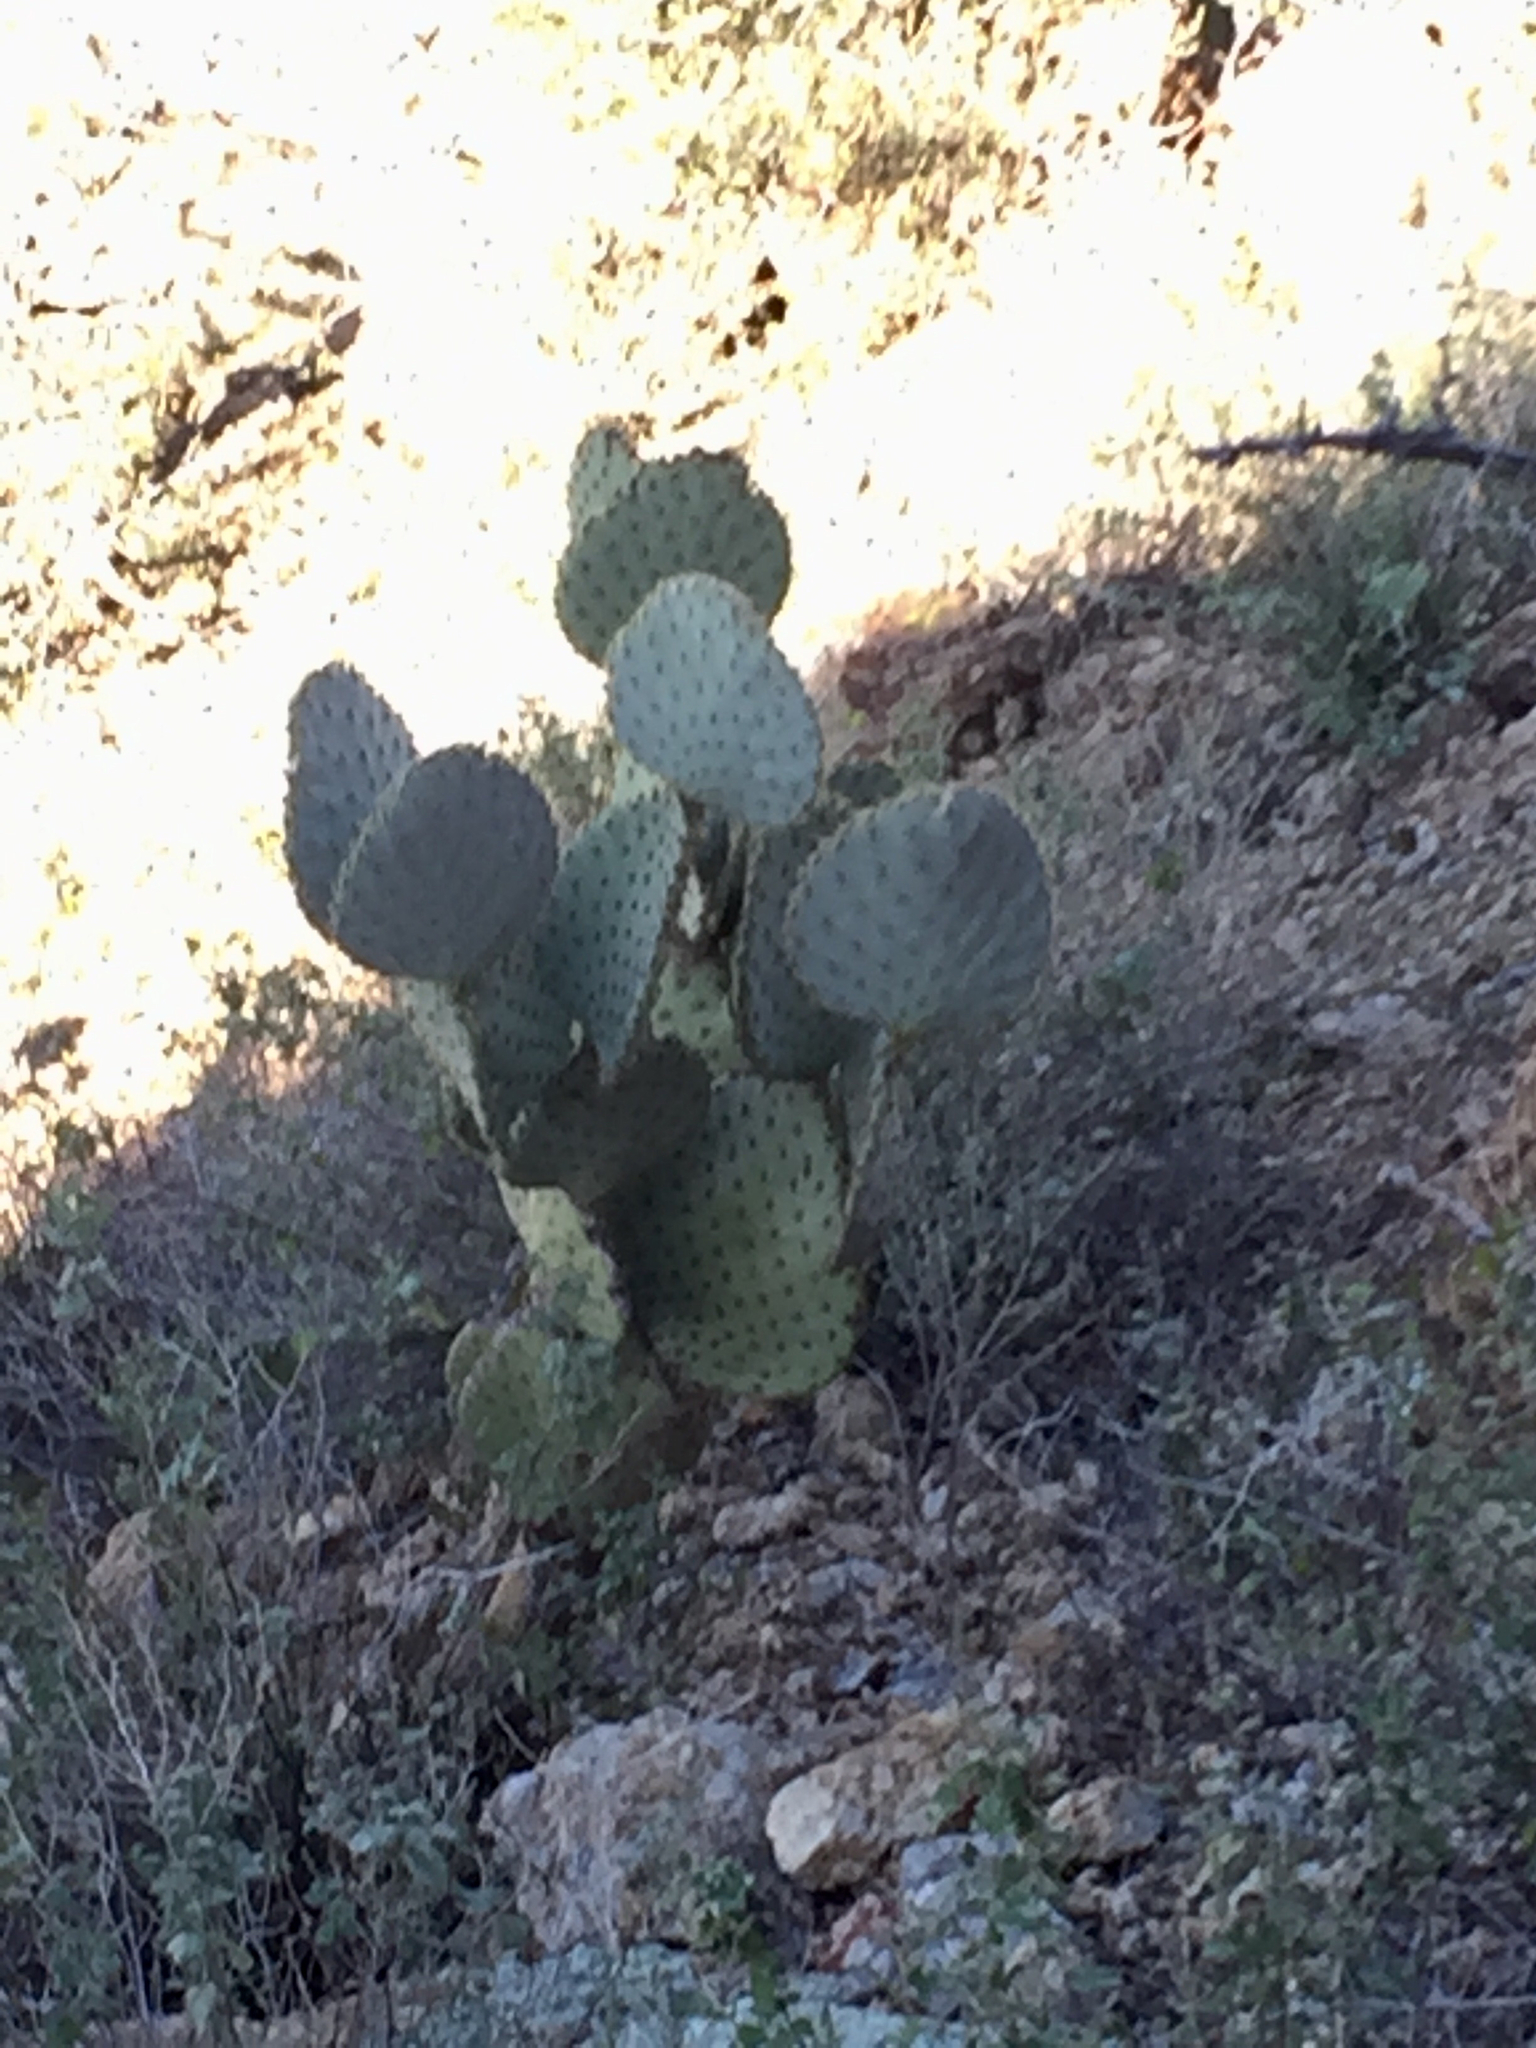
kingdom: Plantae
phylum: Tracheophyta
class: Magnoliopsida
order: Caryophyllales
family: Cactaceae
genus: Opuntia
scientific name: Opuntia chlorotica
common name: Dollar-joint prickly-pear
